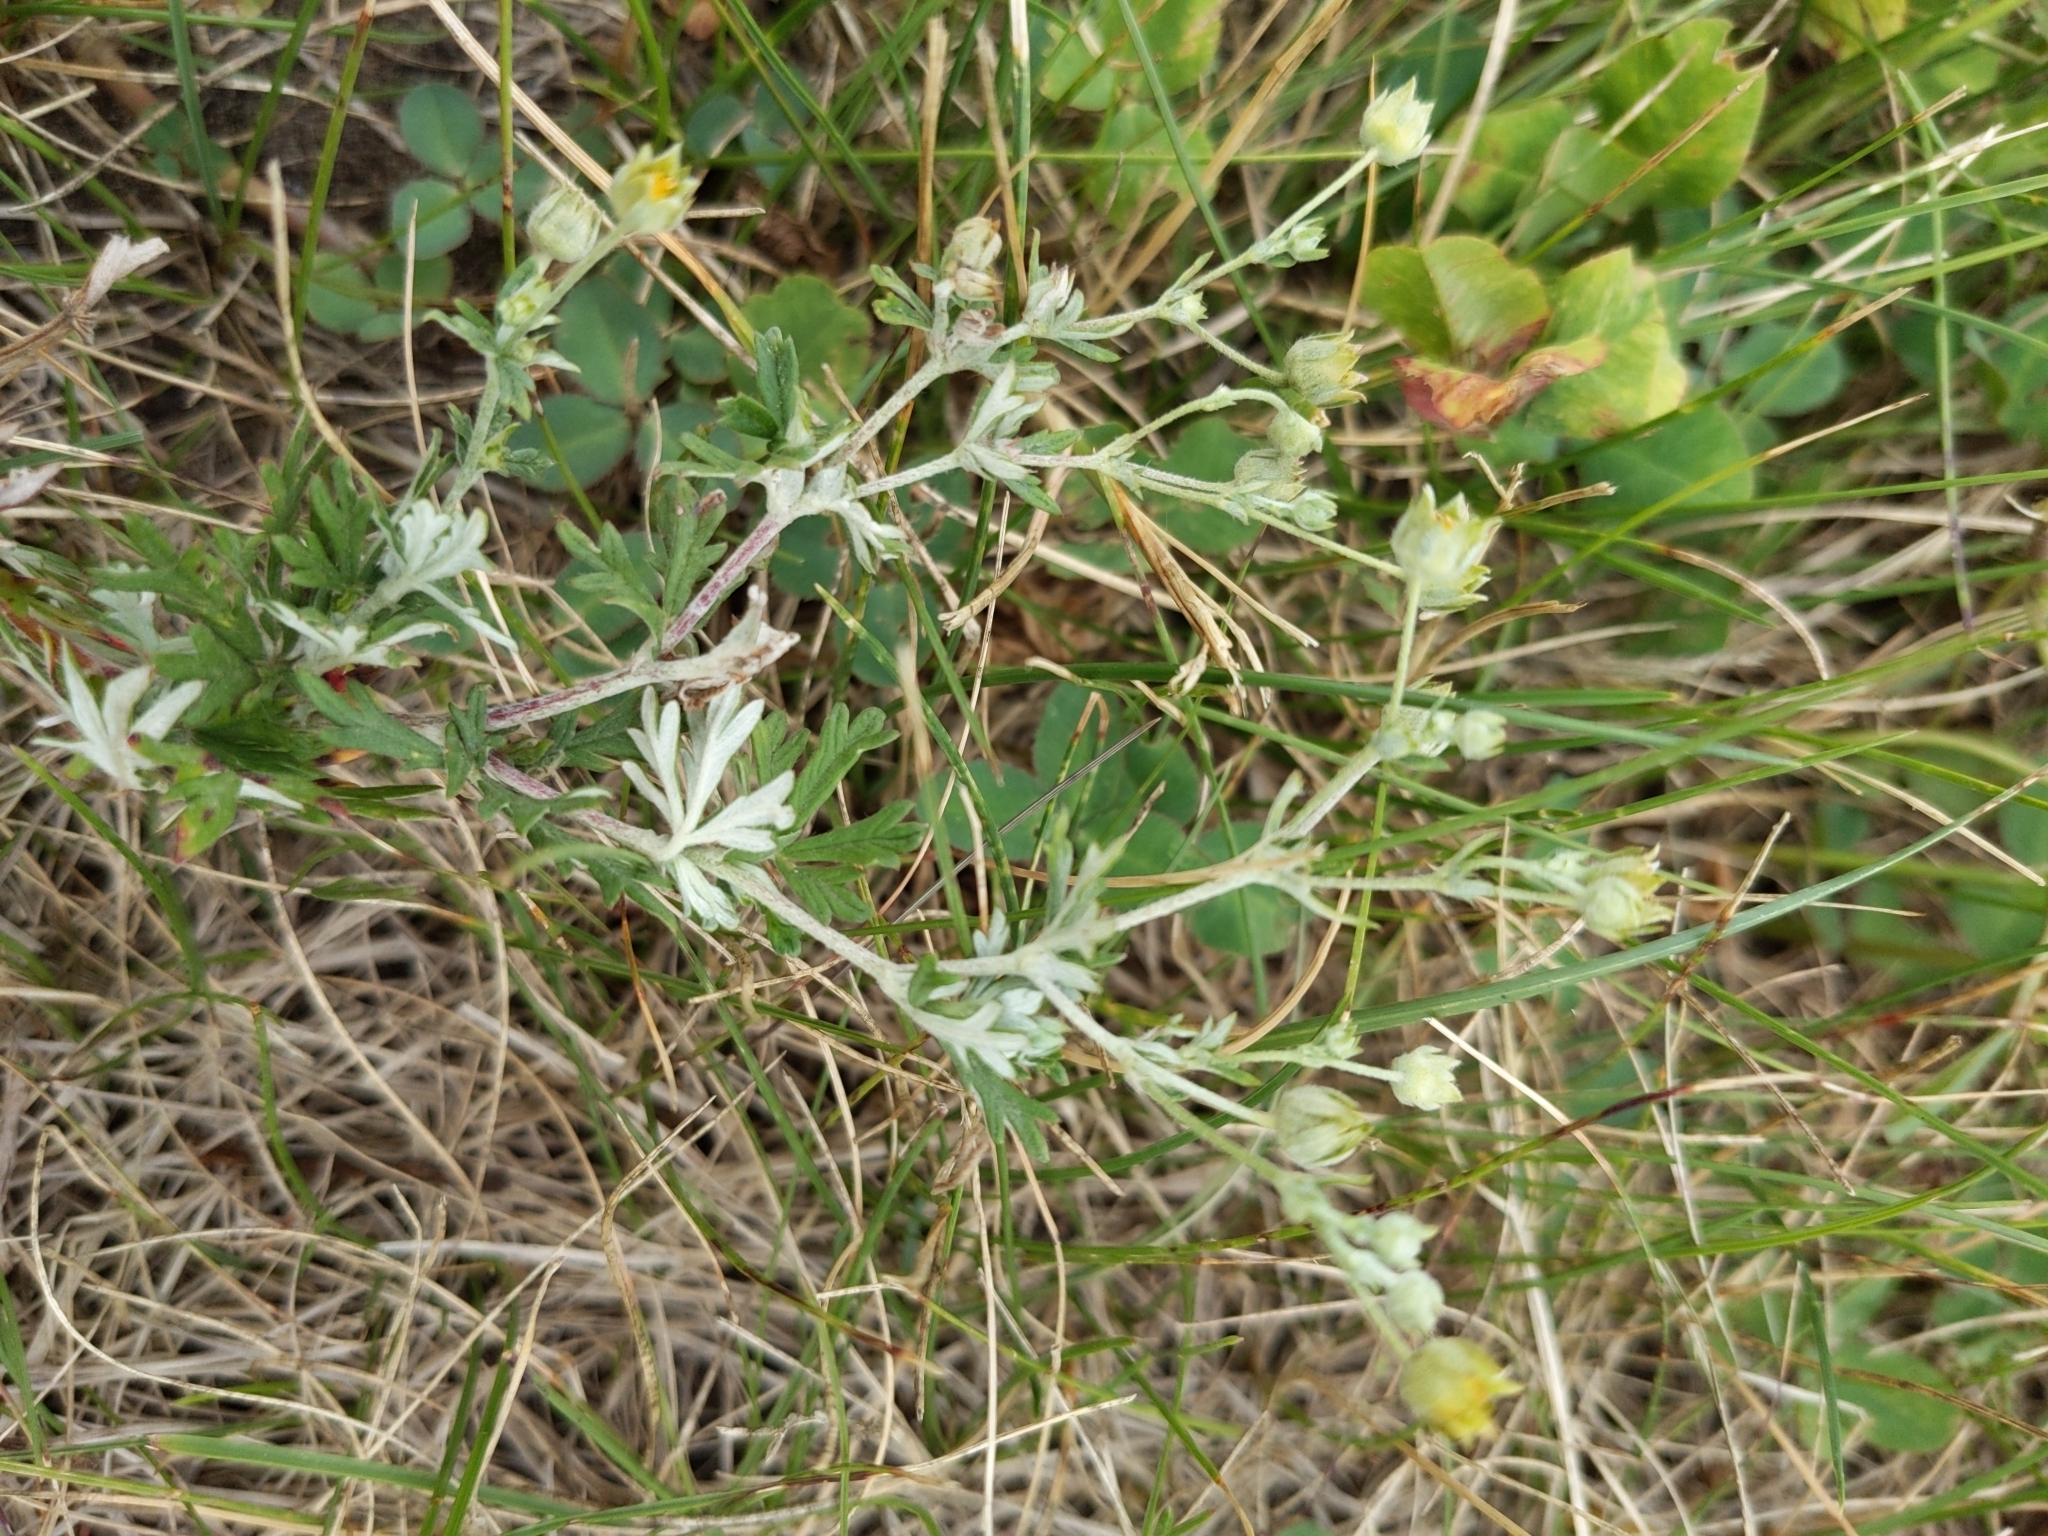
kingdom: Plantae
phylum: Tracheophyta
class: Magnoliopsida
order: Rosales
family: Rosaceae
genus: Potentilla
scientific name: Potentilla argentea
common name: Hoary cinquefoil
